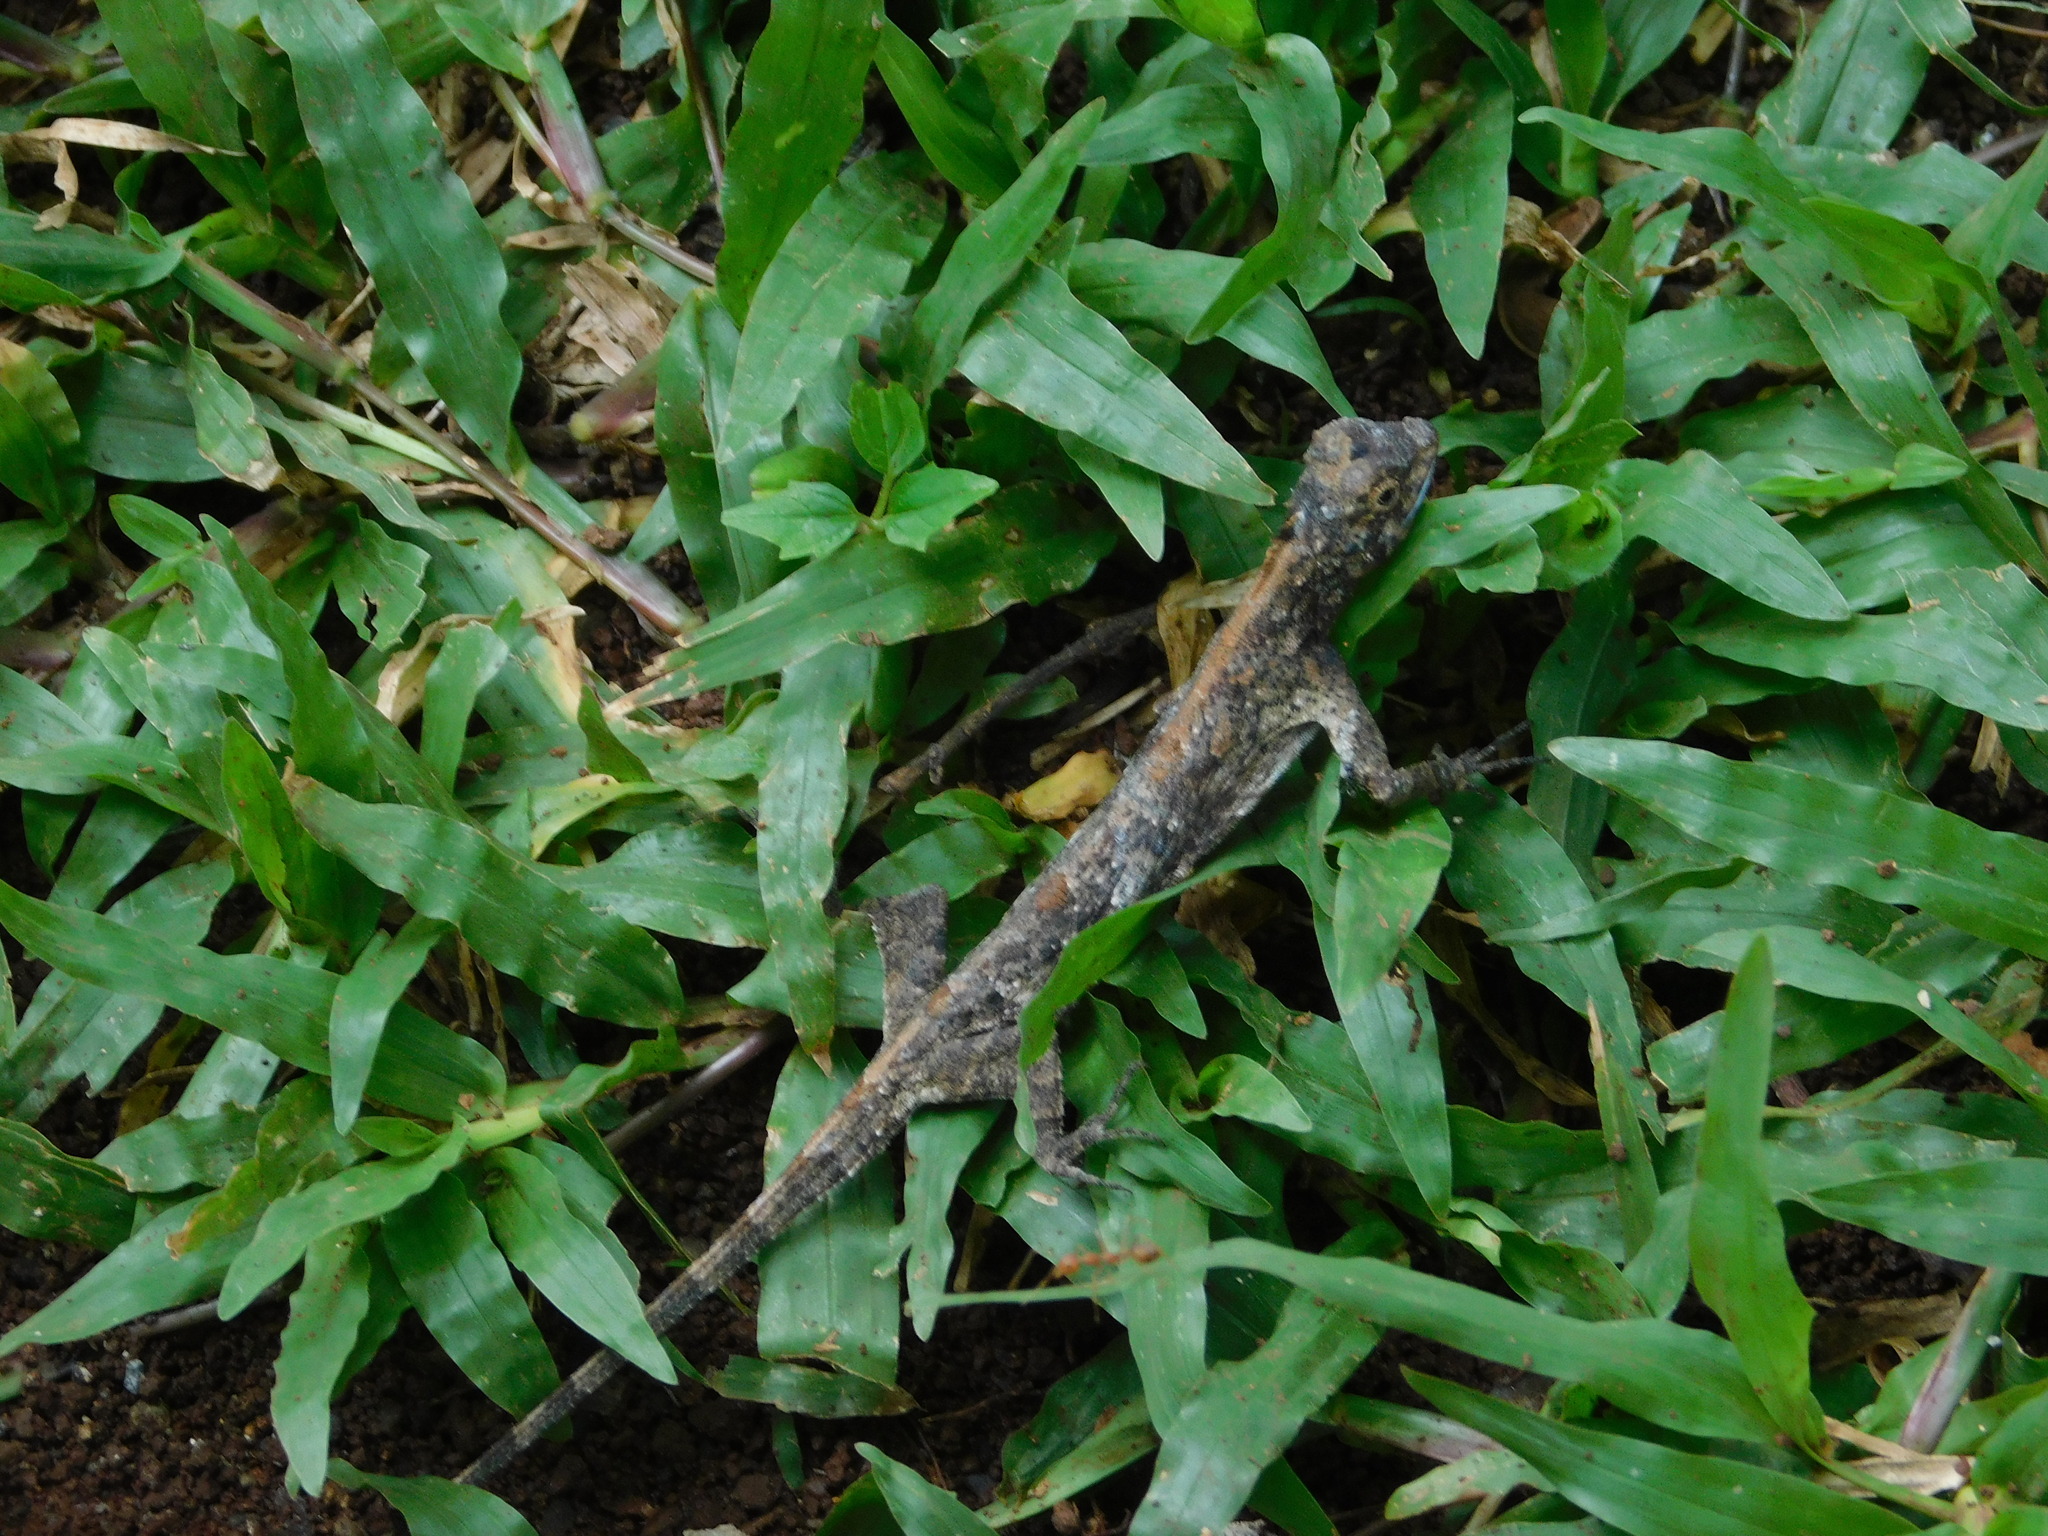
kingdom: Animalia
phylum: Chordata
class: Squamata
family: Agamidae
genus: Draco
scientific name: Draco volans
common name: Common flying dragon
